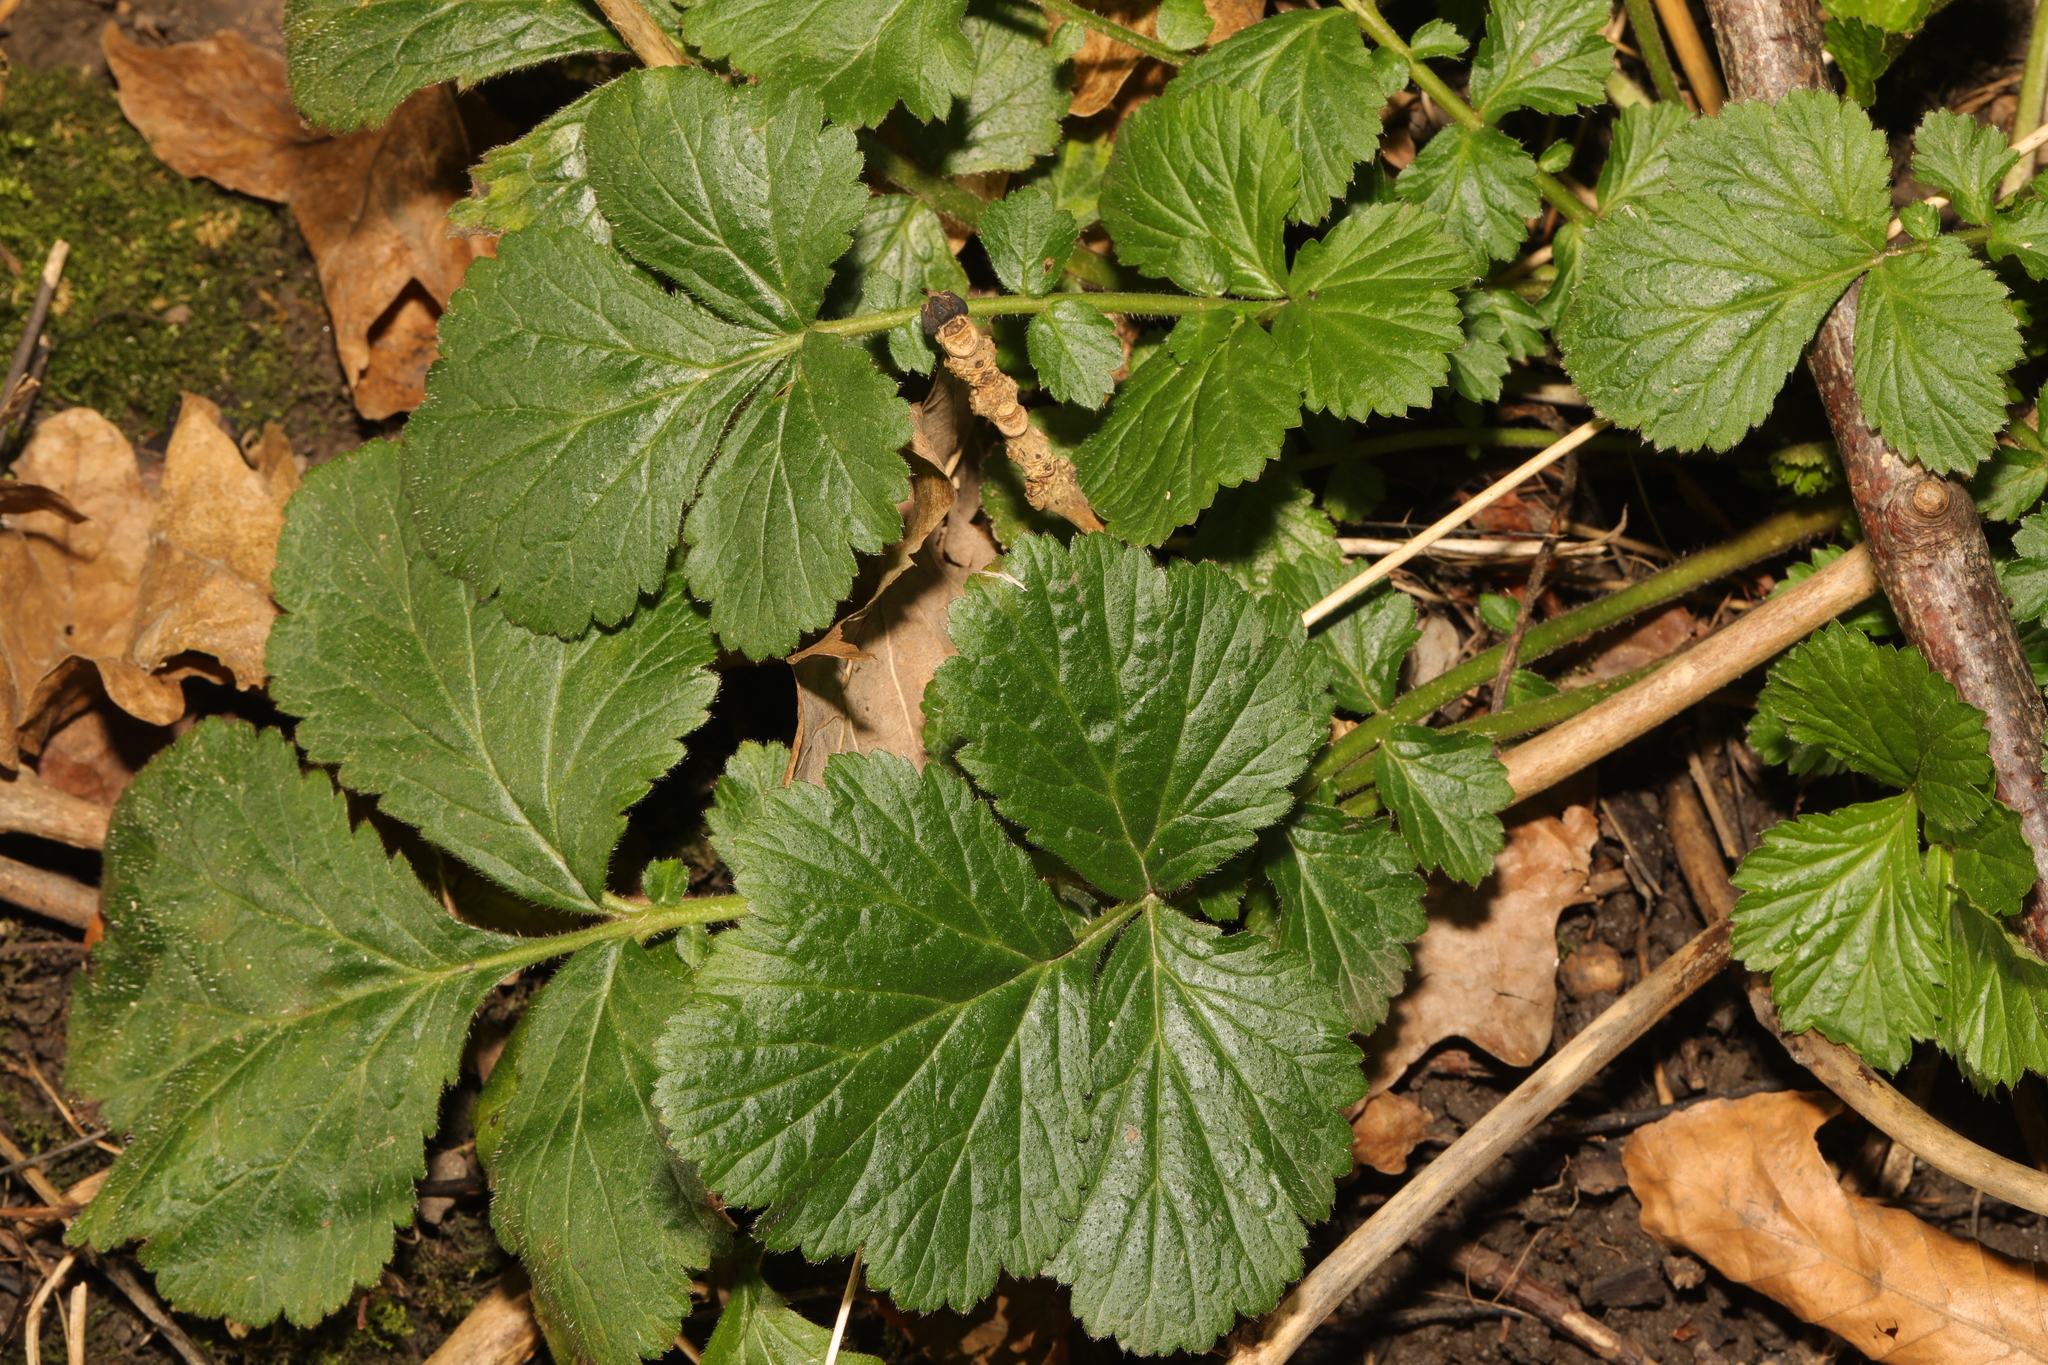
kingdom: Plantae
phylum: Tracheophyta
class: Magnoliopsida
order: Rosales
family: Rosaceae
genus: Geum
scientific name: Geum urbanum
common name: Wood avens
